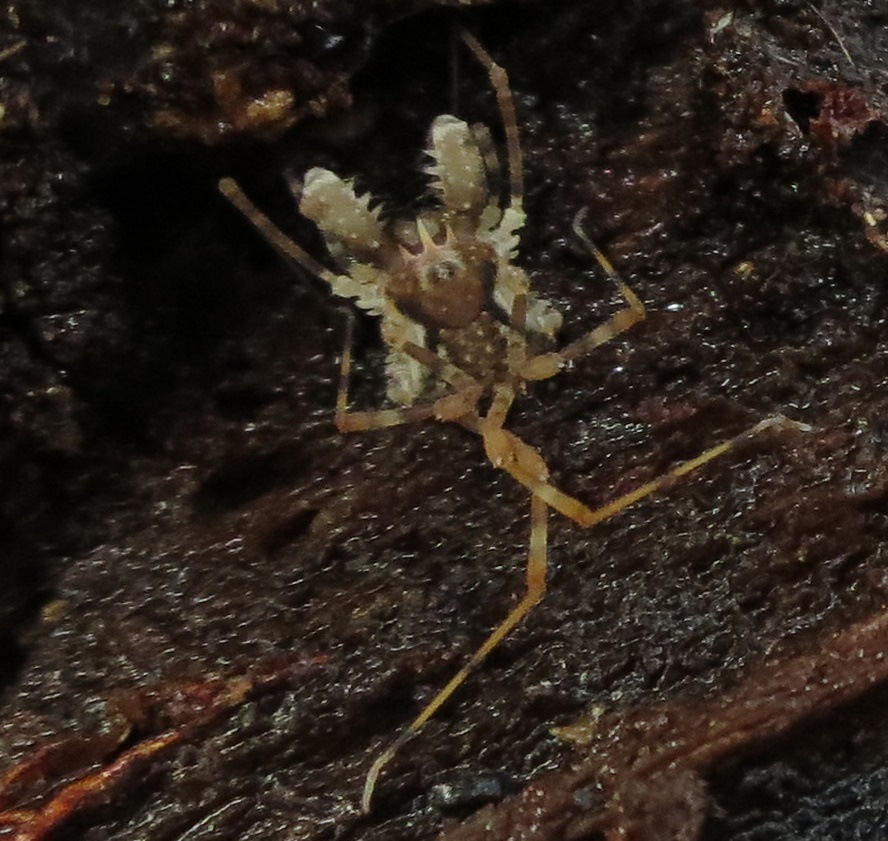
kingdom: Animalia
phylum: Arthropoda
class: Arachnida
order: Opiliones
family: Triaenonychidae
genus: Algidia
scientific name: Algidia chiltoni
